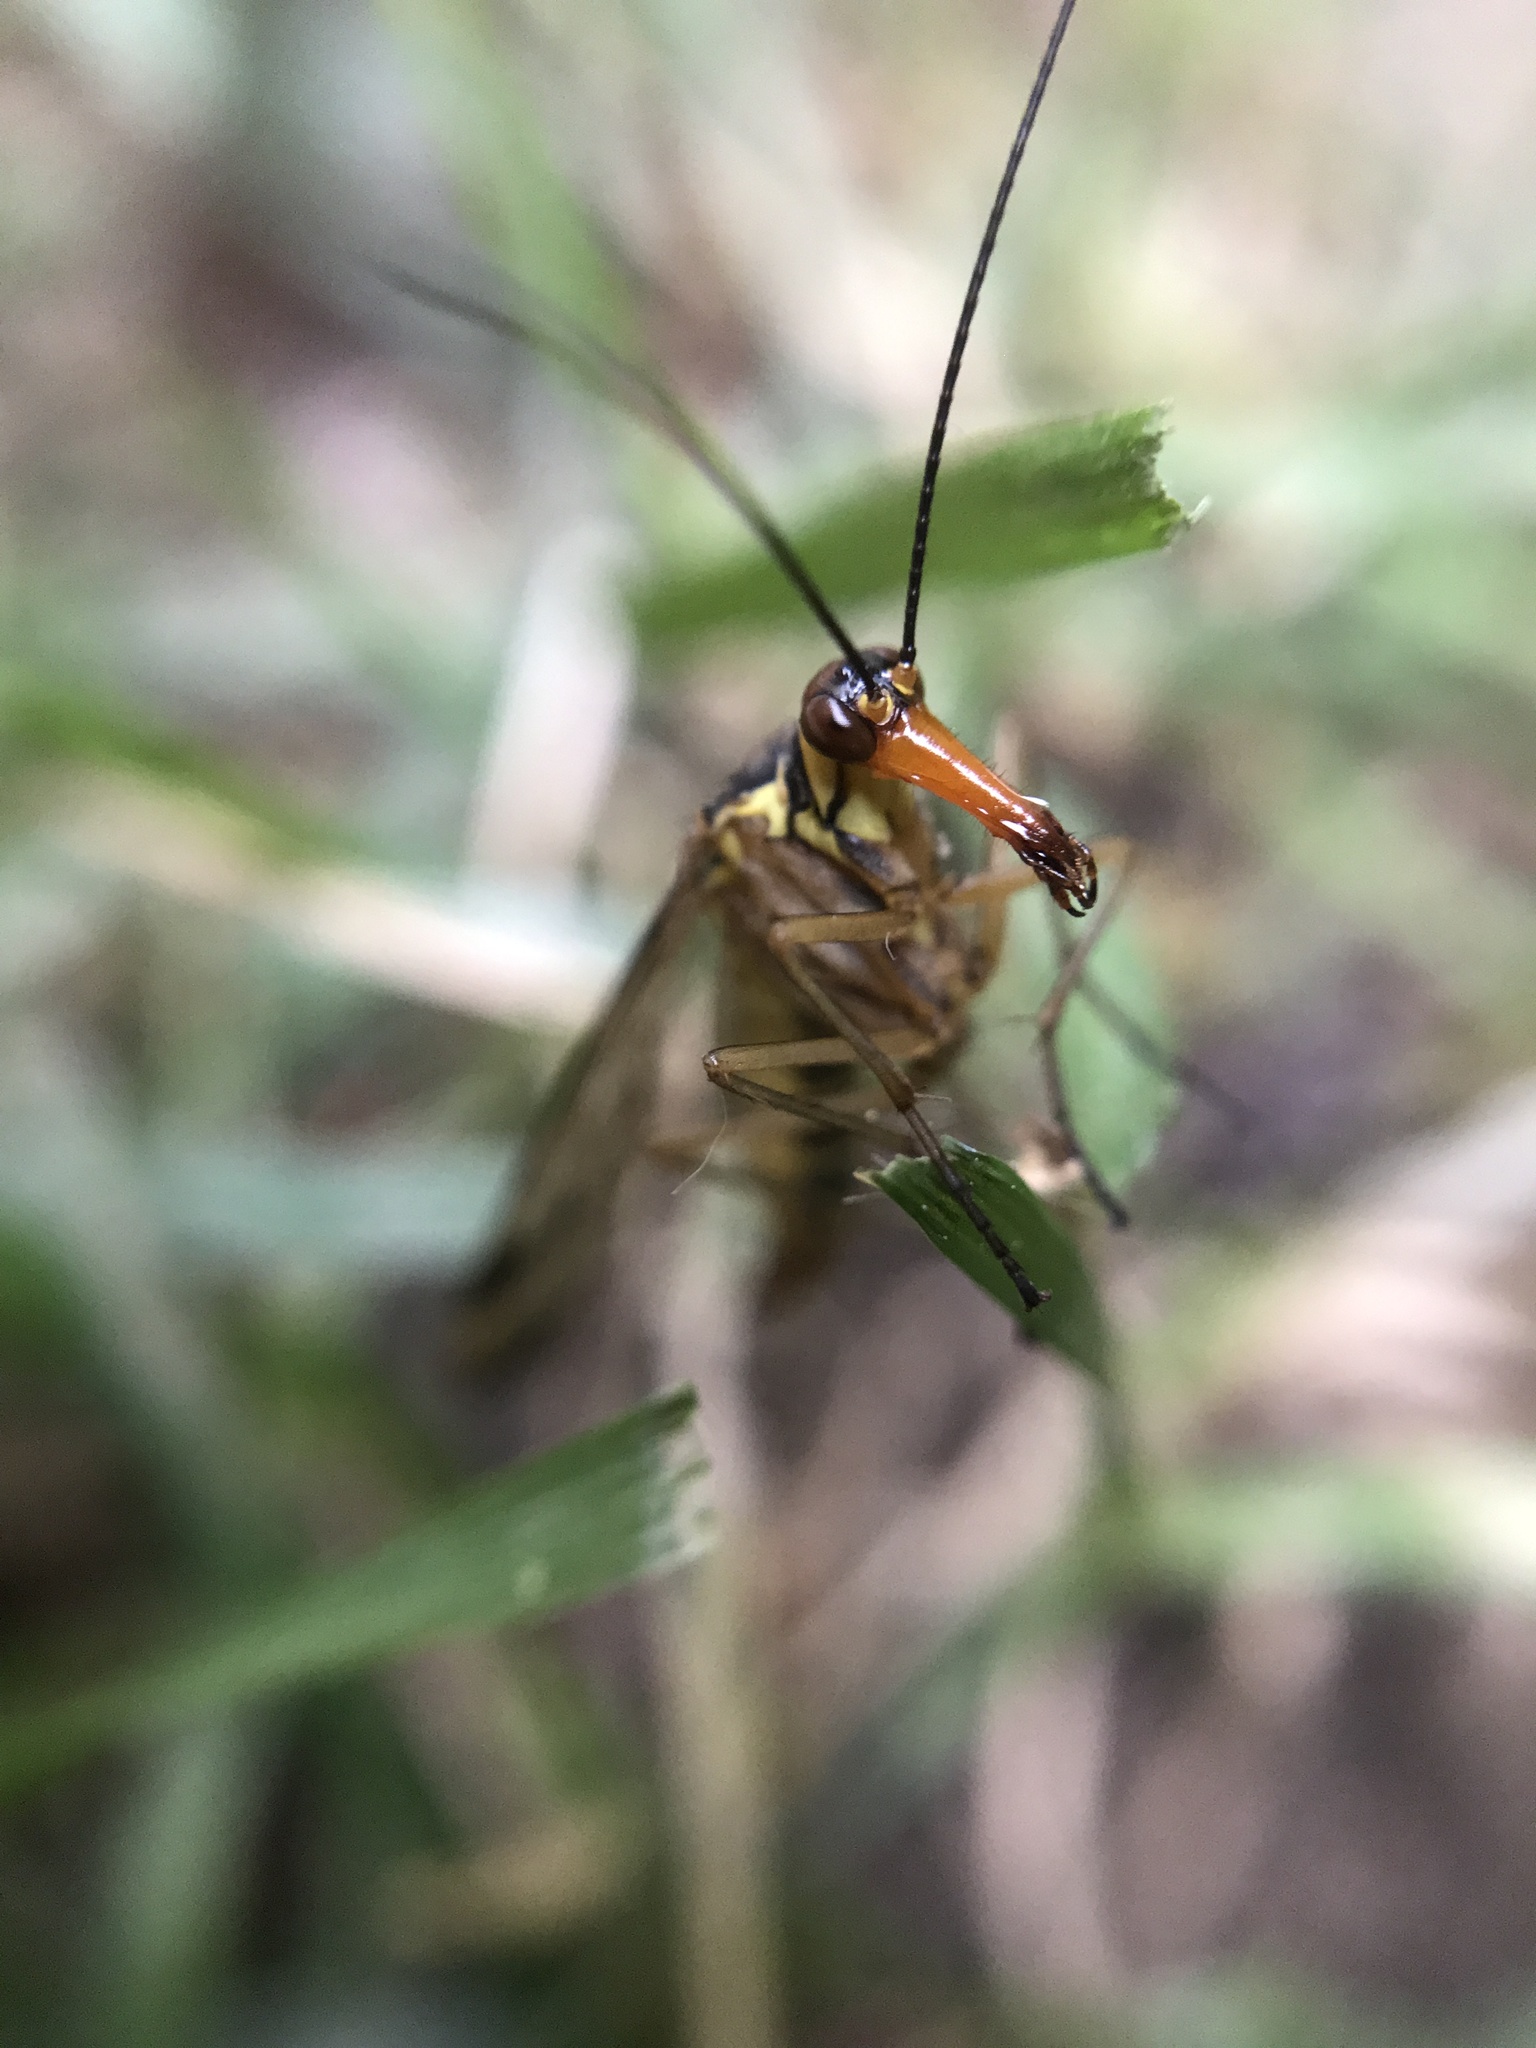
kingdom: Animalia
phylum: Arthropoda
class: Insecta
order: Mecoptera
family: Panorpidae
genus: Panorpa
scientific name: Panorpa communis
